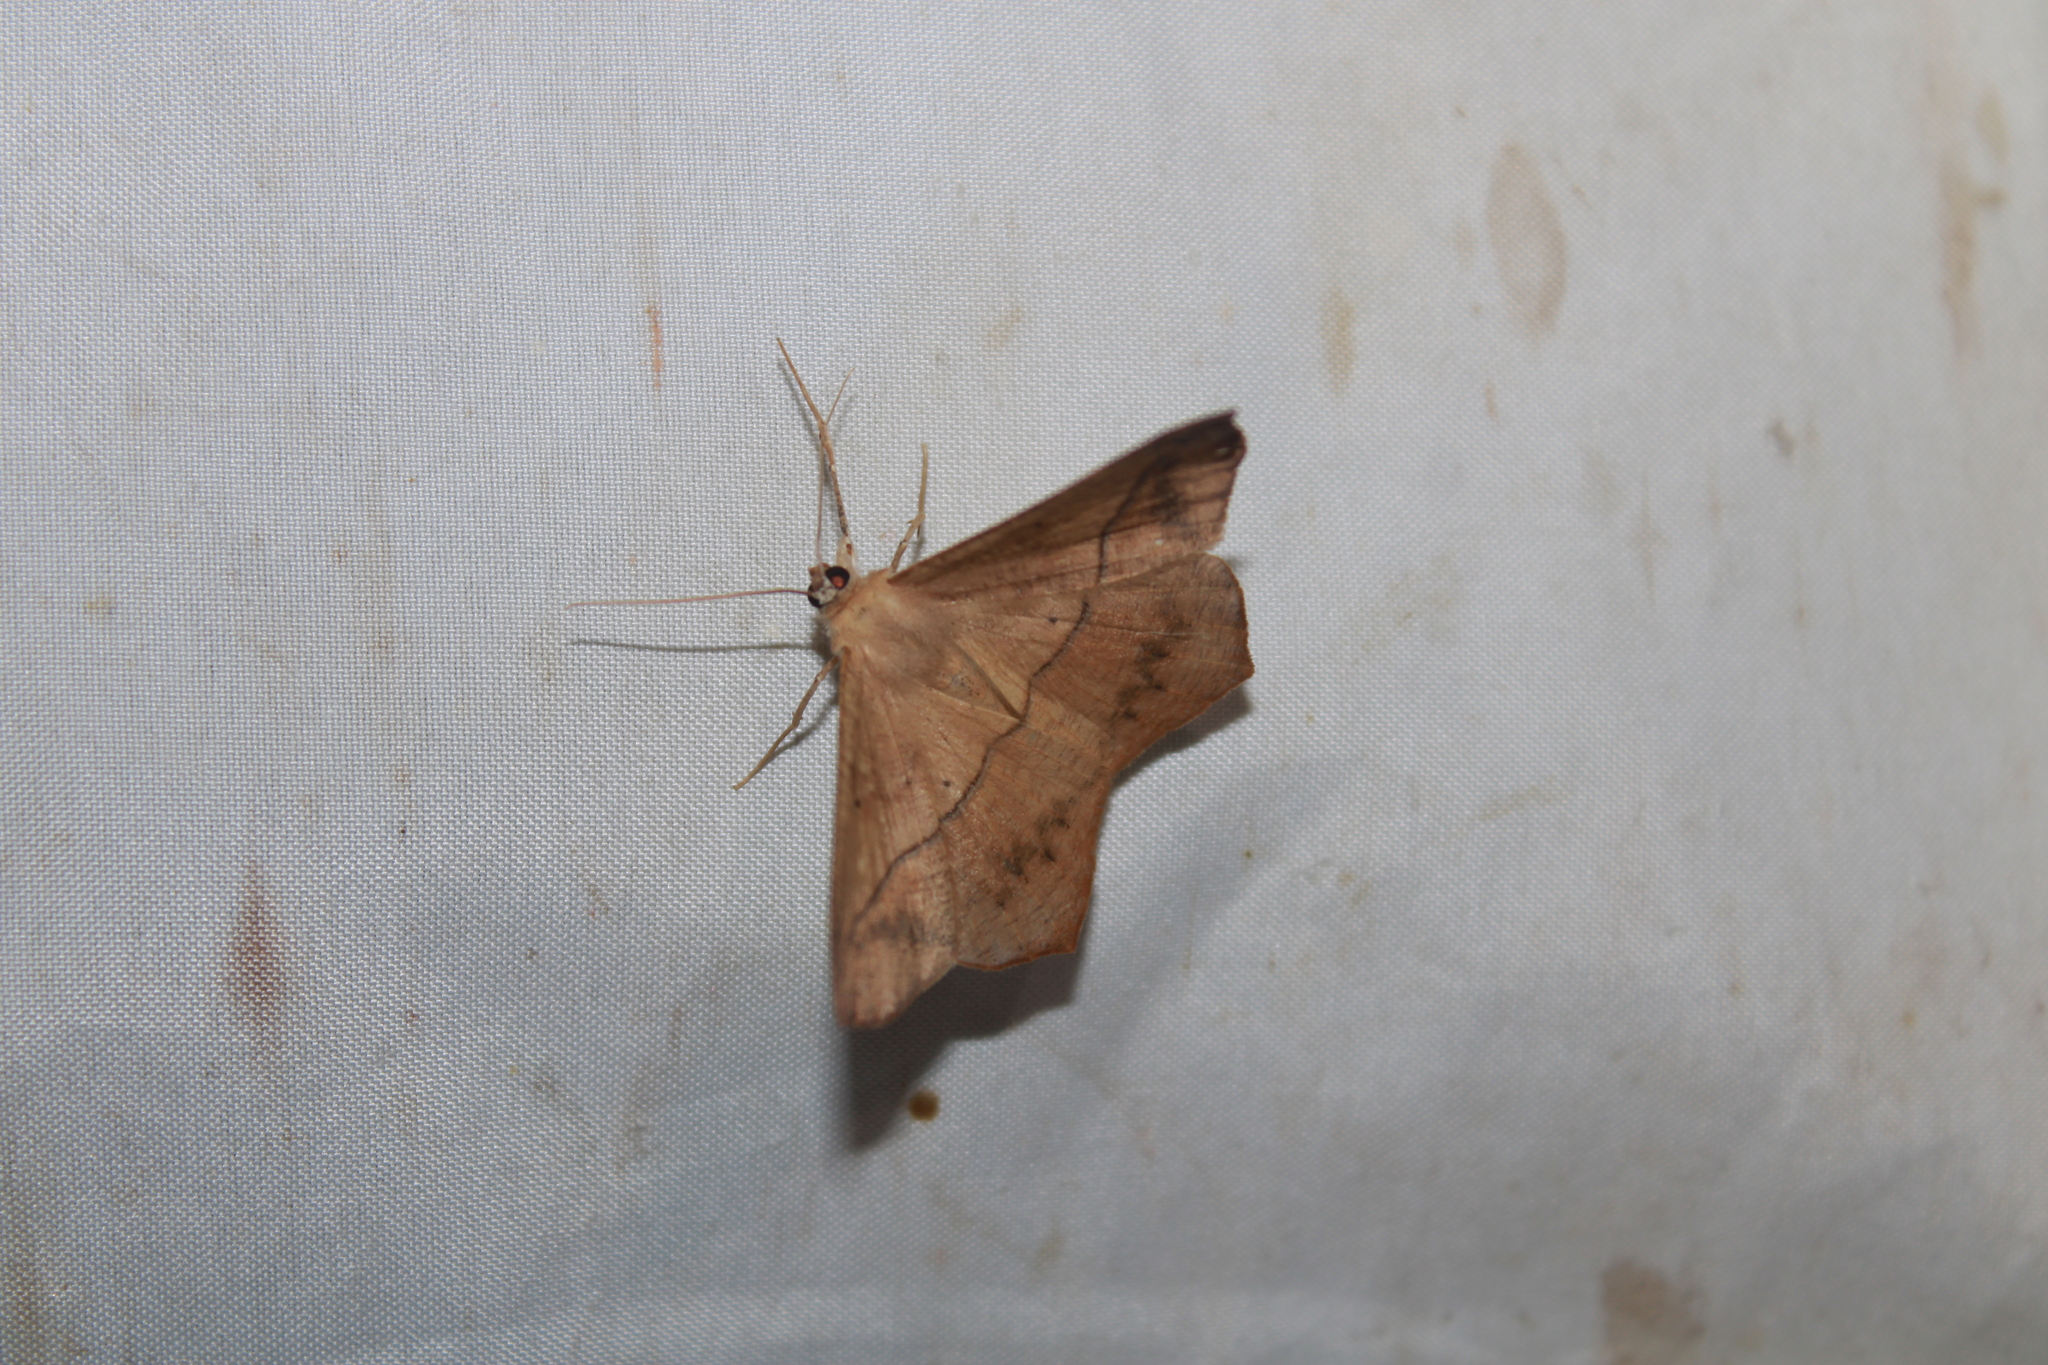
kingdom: Animalia
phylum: Arthropoda
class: Insecta
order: Lepidoptera
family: Geometridae
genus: Prochoerodes
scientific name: Prochoerodes lineola
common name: Large maple spanworm
